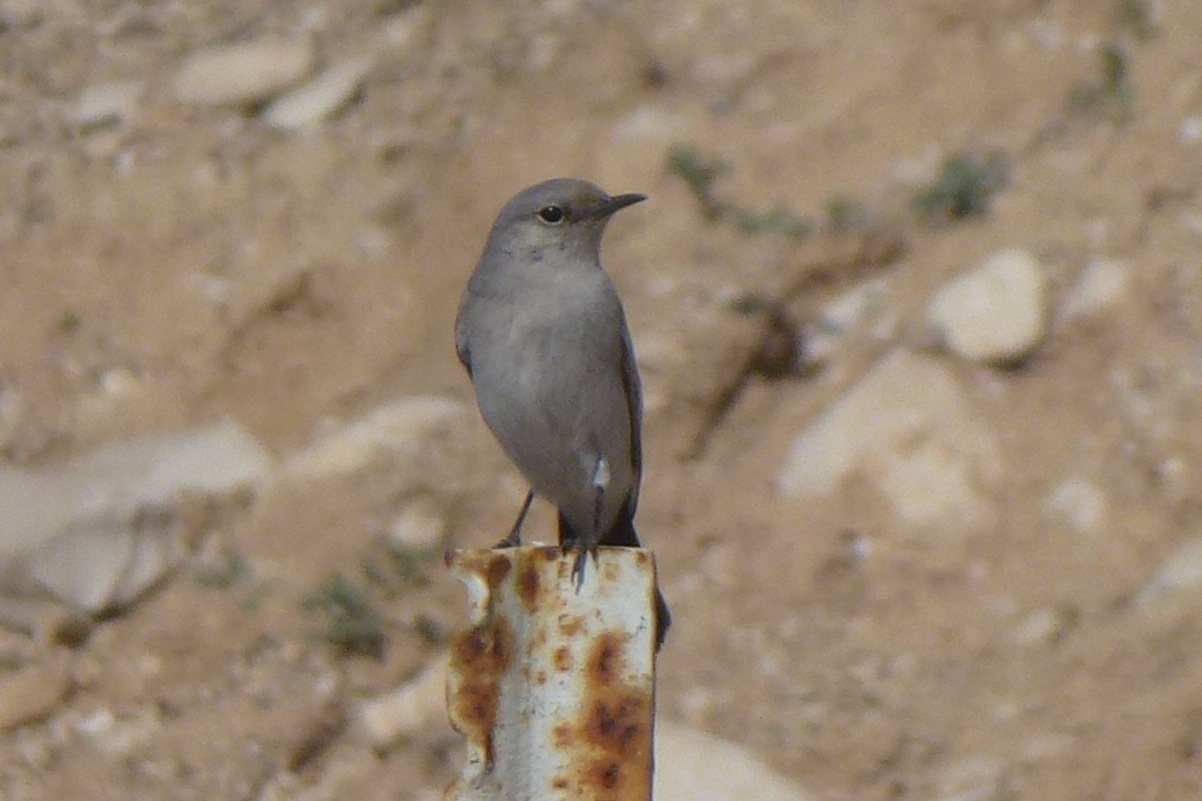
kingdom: Animalia
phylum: Chordata
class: Aves
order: Passeriformes
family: Muscicapidae
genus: Oenanthe
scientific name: Oenanthe melanura
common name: Blackstart
